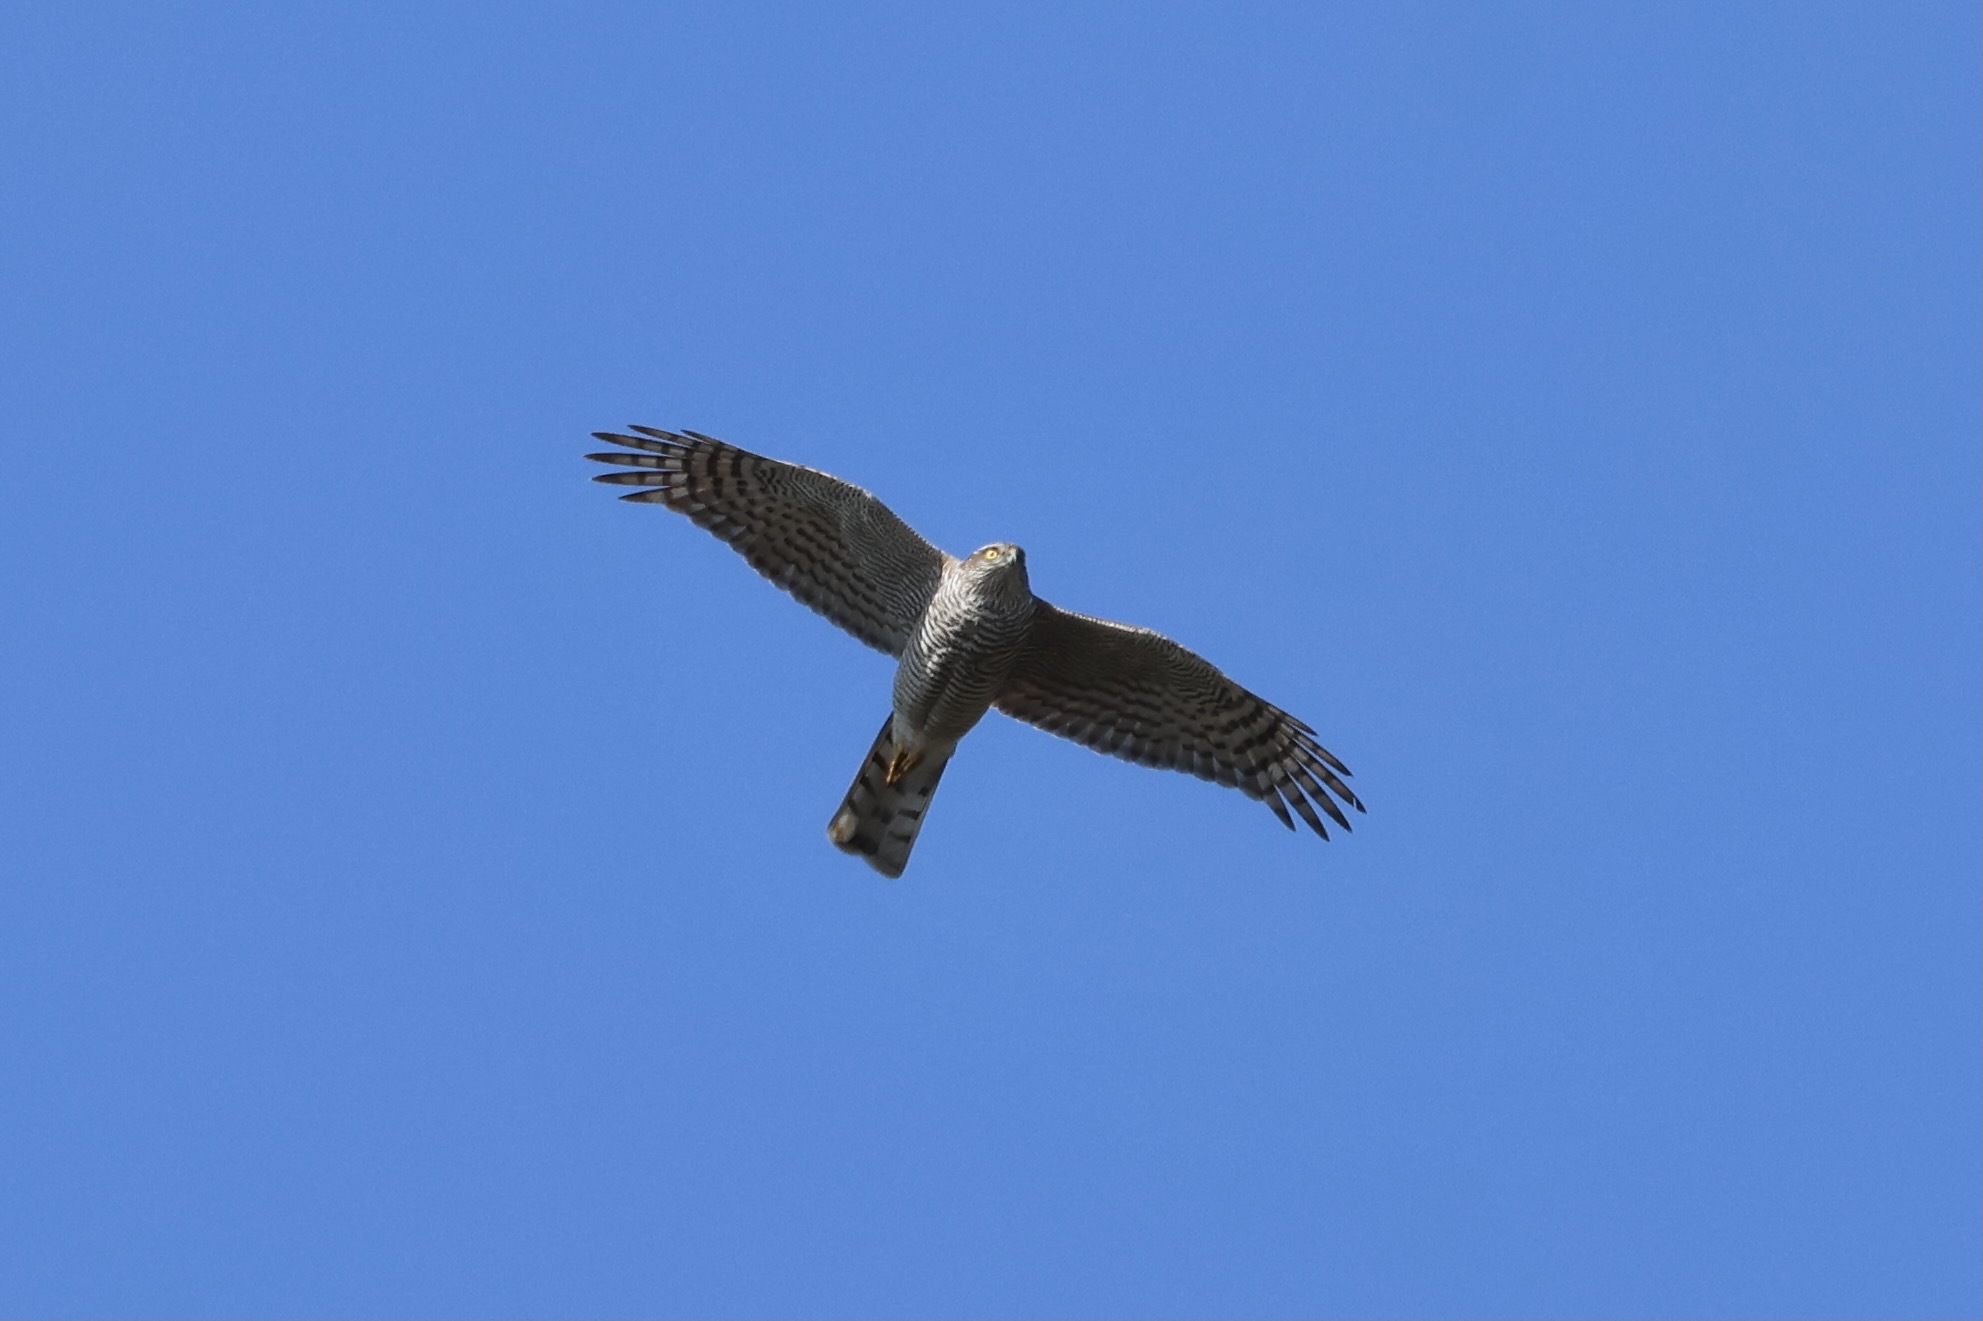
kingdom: Animalia
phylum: Chordata
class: Aves
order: Accipitriformes
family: Accipitridae
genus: Accipiter
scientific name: Accipiter nisus
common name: Eurasian sparrowhawk
